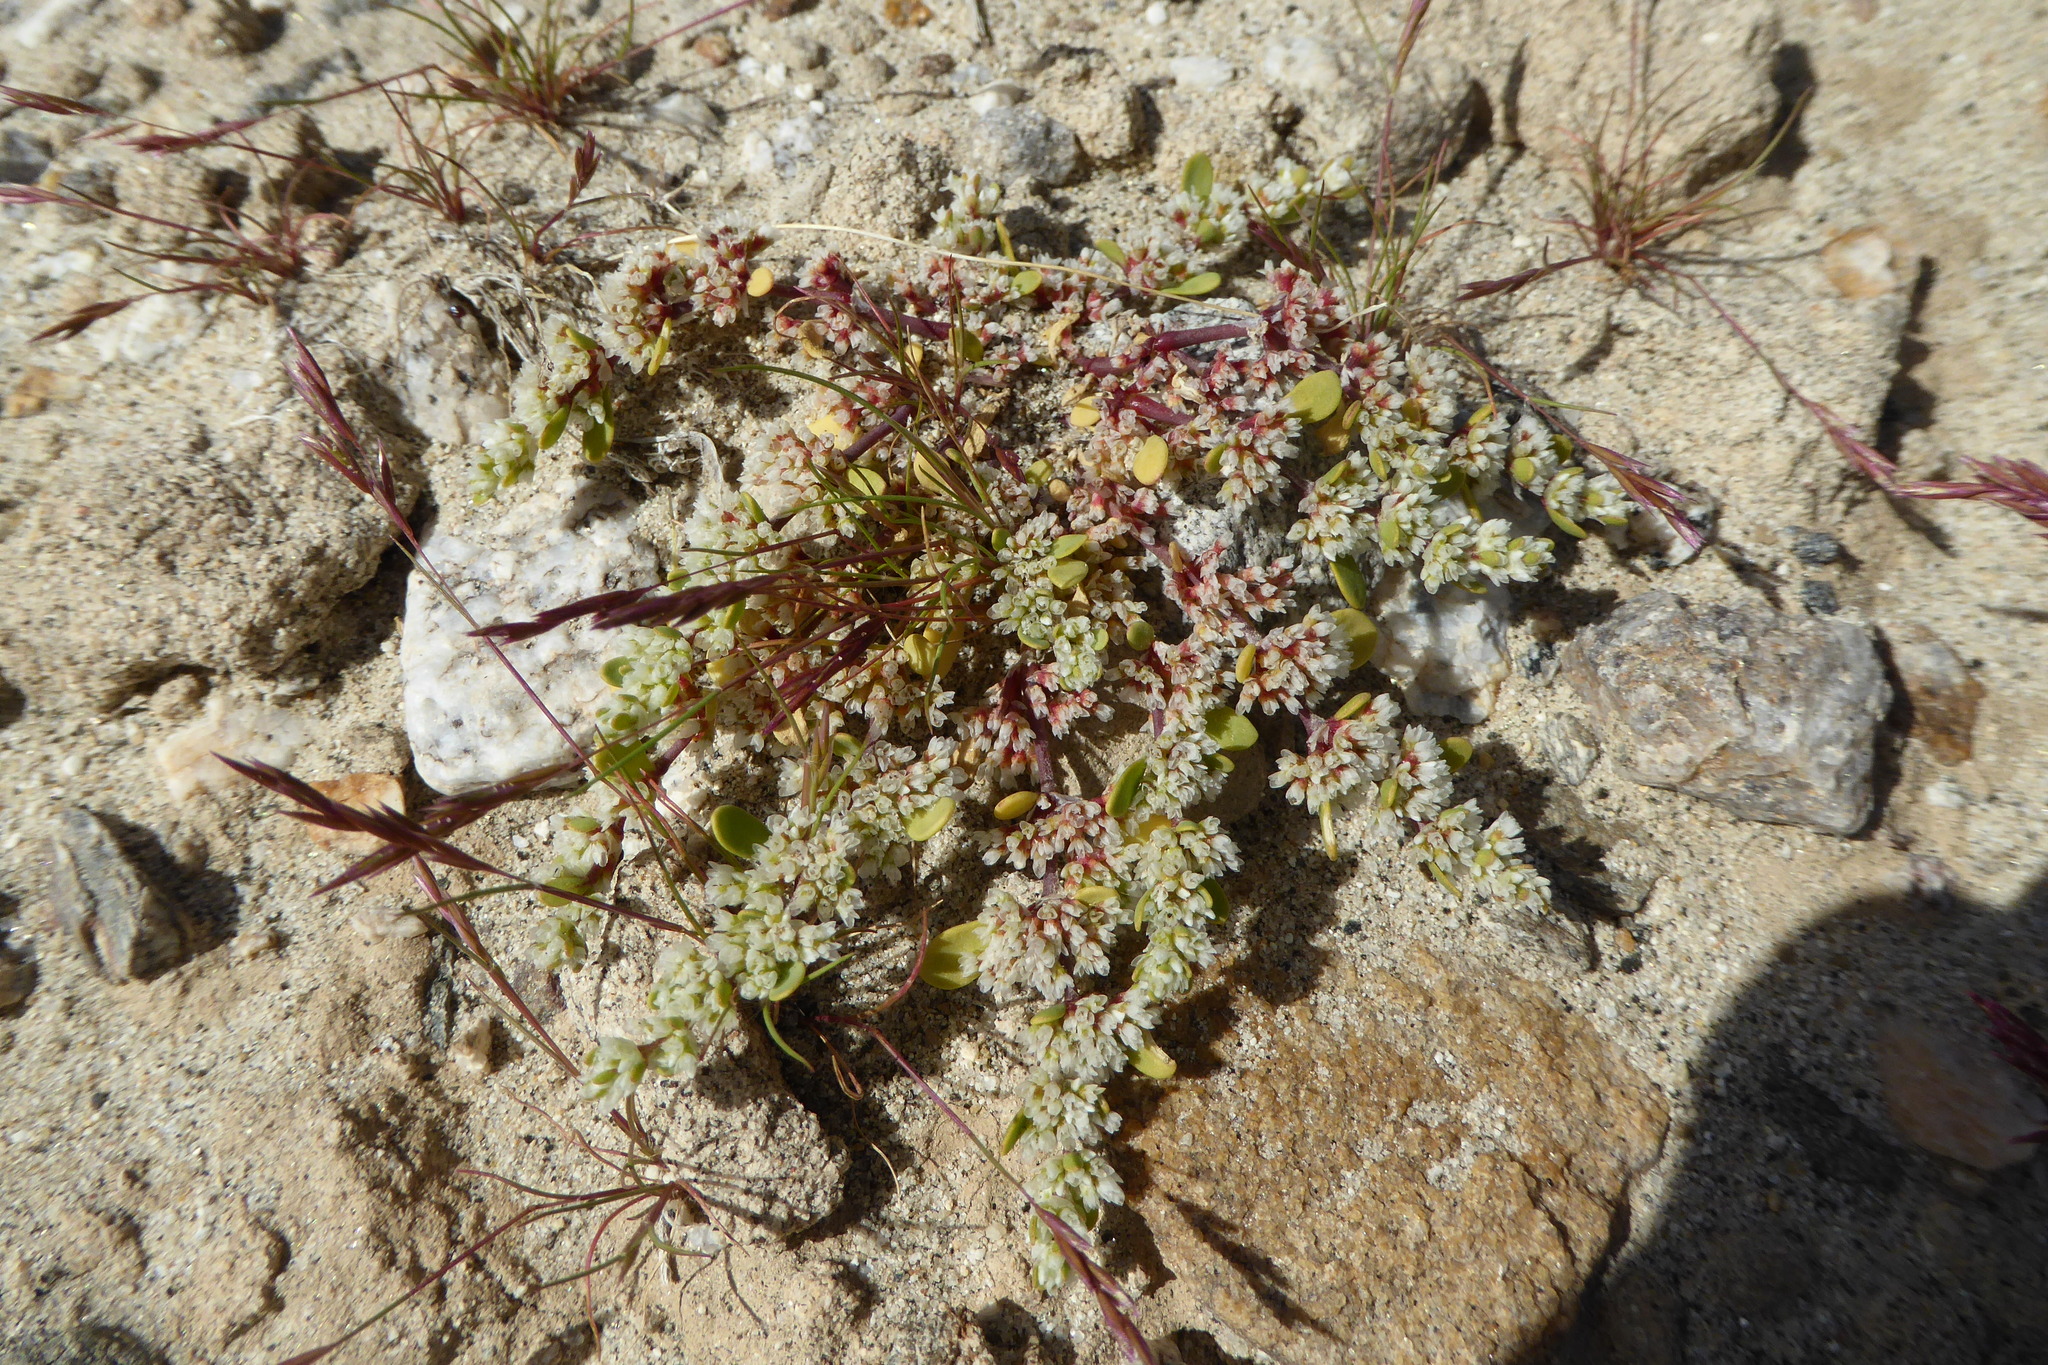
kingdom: Plantae
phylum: Tracheophyta
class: Magnoliopsida
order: Caryophyllales
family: Caryophyllaceae
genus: Achyronychia
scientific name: Achyronychia cooperi
